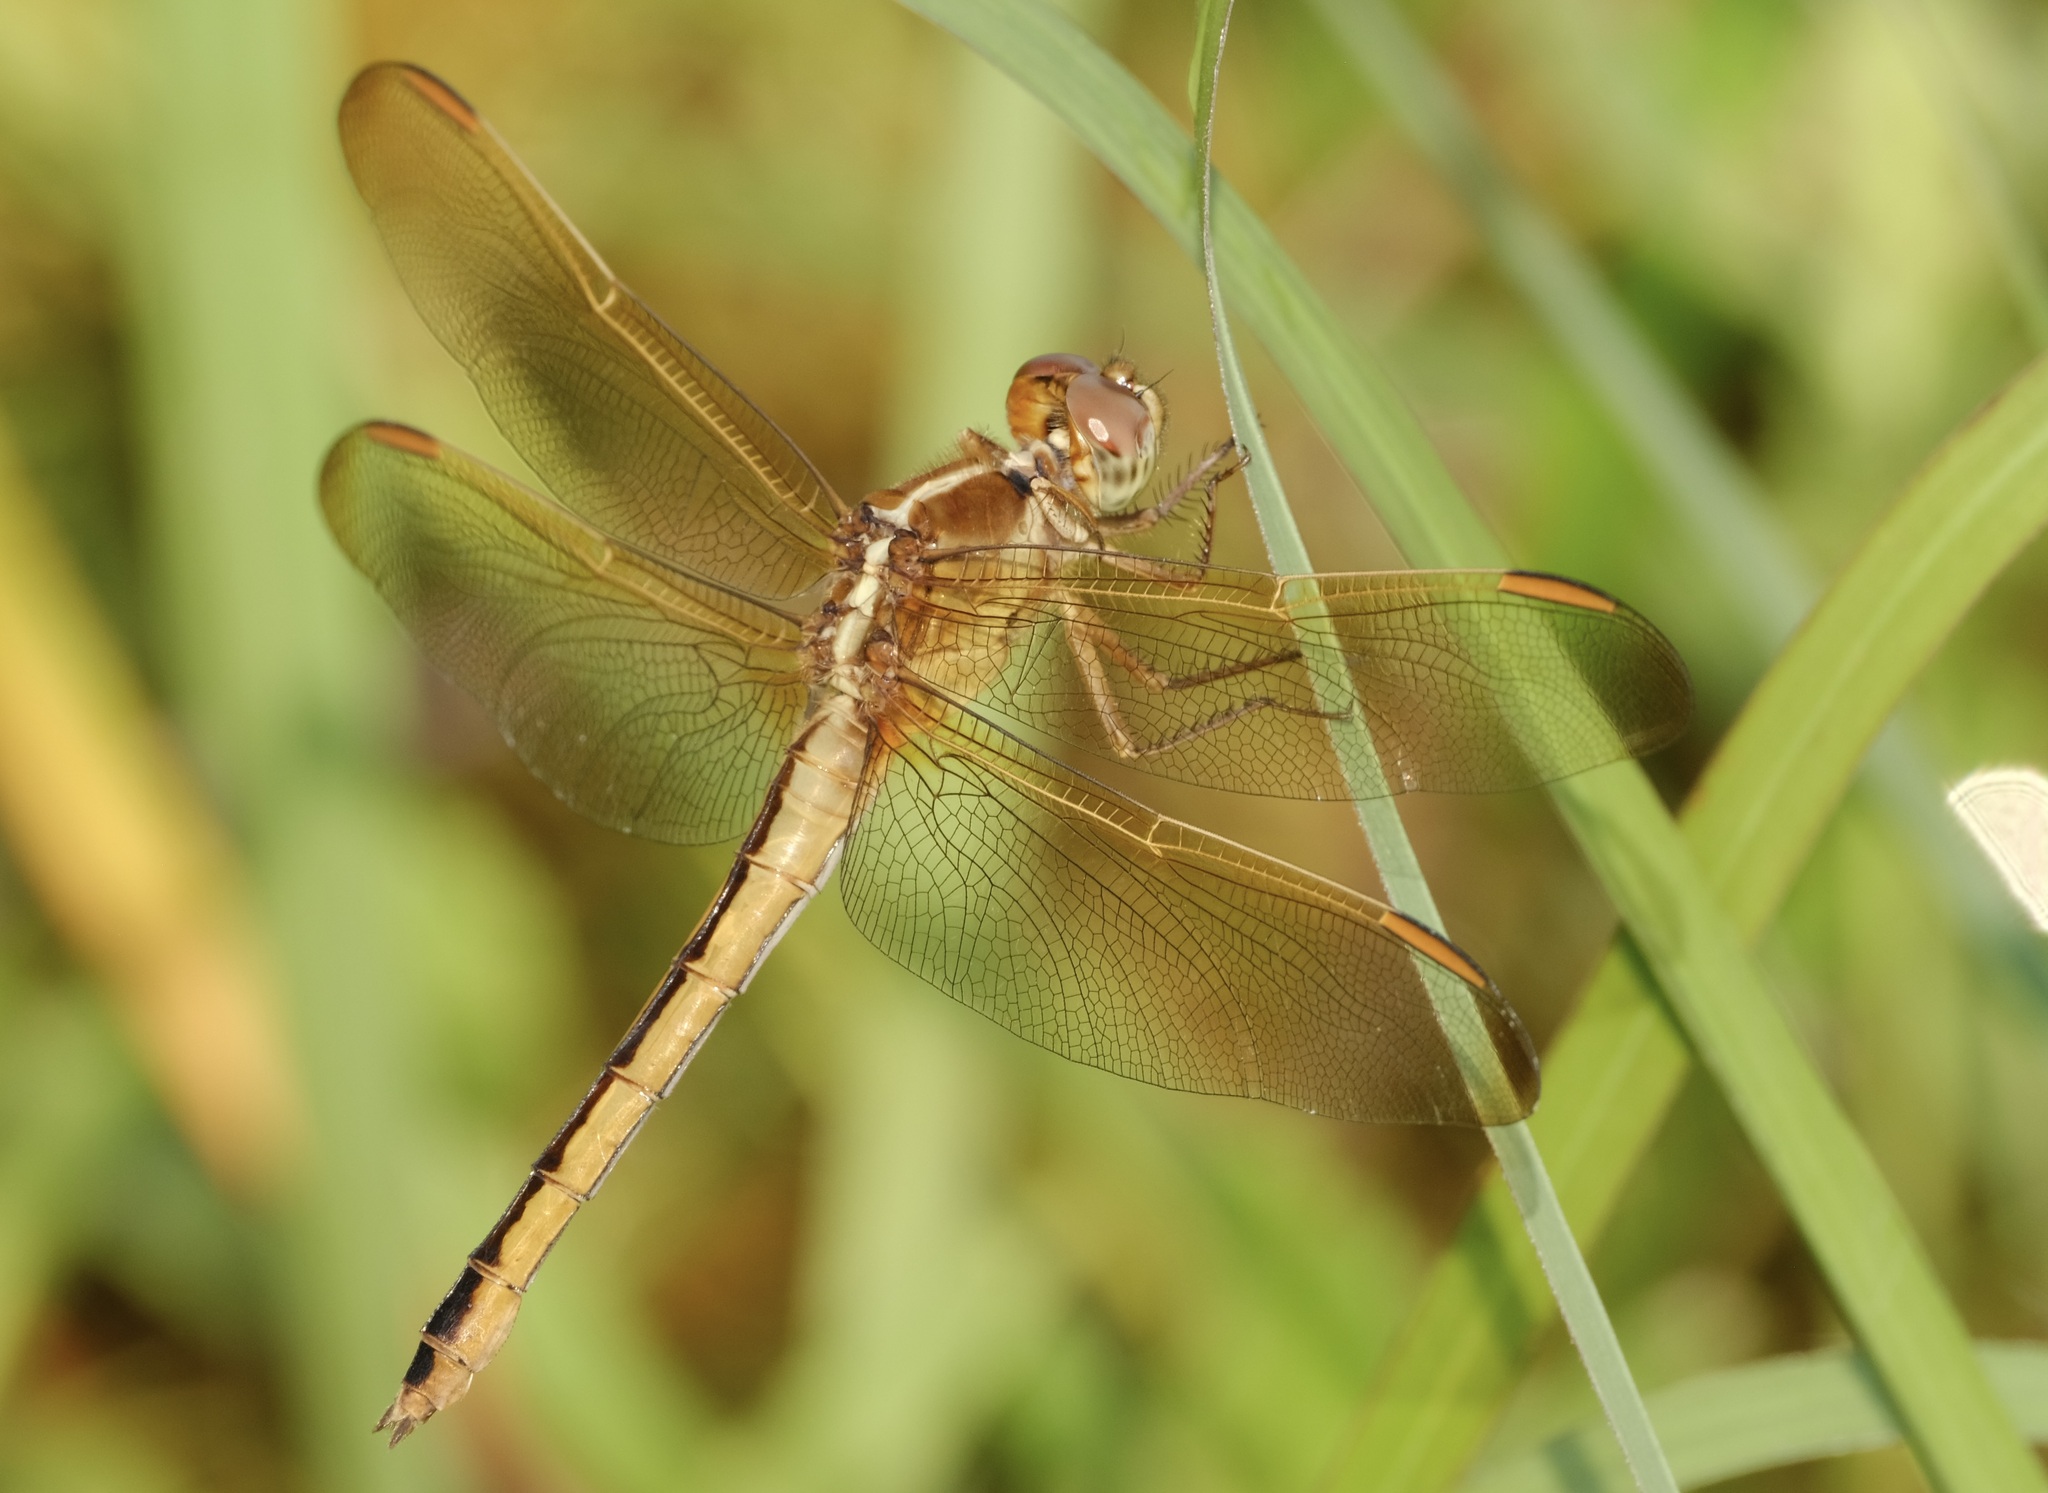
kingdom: Animalia
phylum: Arthropoda
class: Insecta
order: Odonata
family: Libellulidae
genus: Libellula
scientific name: Libellula needhami
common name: Needham's skimmer
